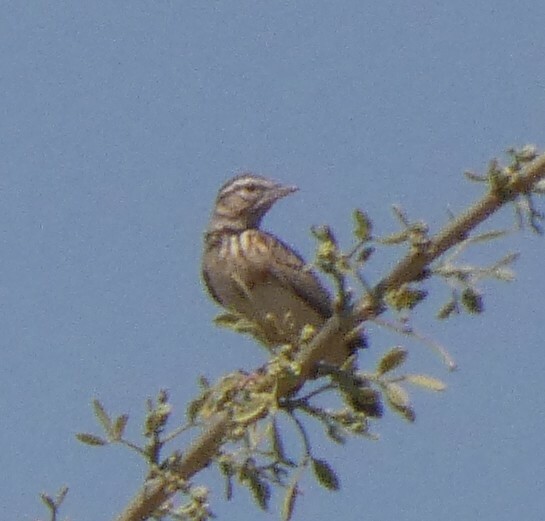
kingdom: Animalia
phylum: Chordata
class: Aves
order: Passeriformes
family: Alaudidae
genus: Calendulauda
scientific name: Calendulauda sabota
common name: Sabota lark
